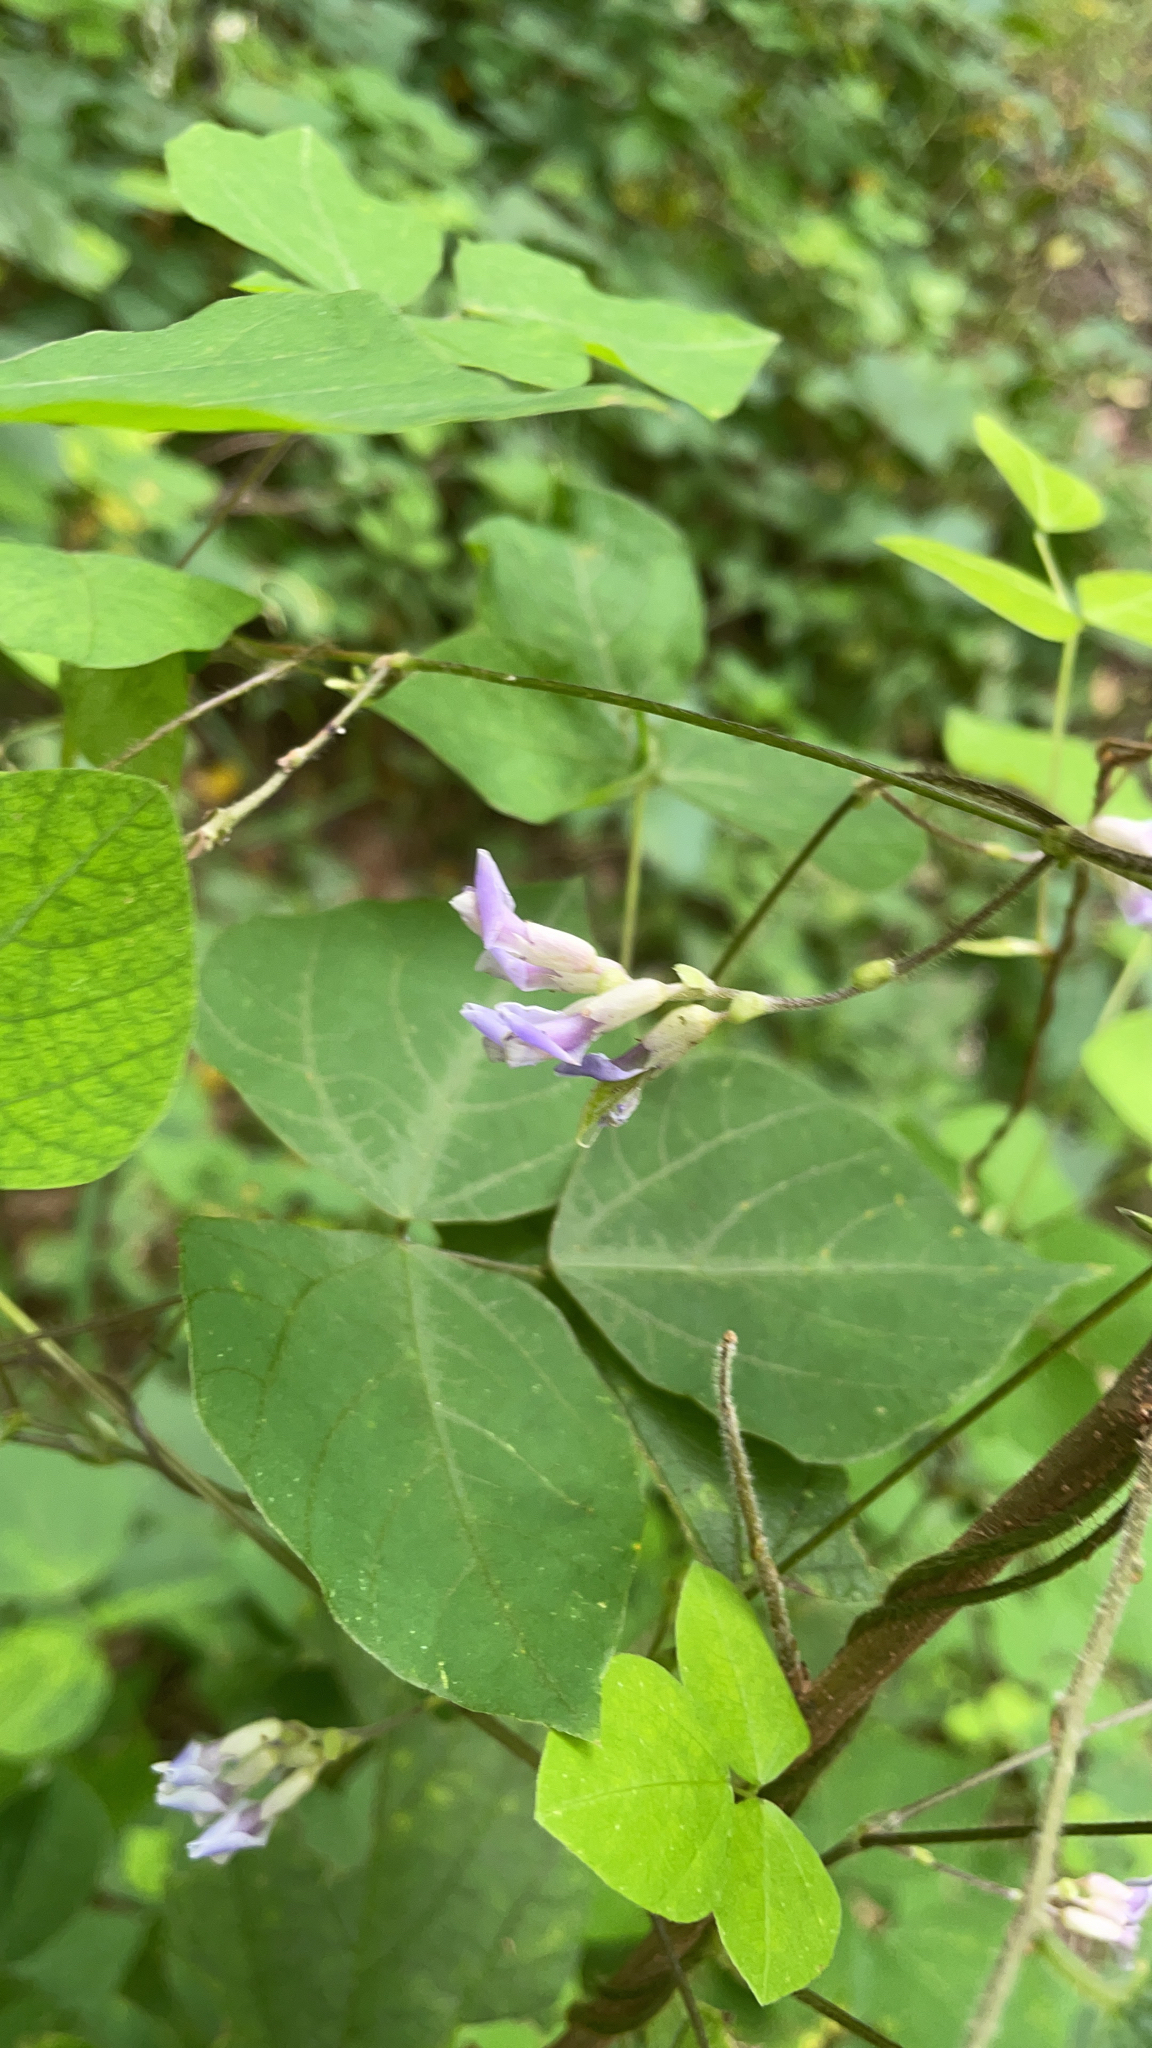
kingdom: Plantae
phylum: Tracheophyta
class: Magnoliopsida
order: Fabales
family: Fabaceae
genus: Amphicarpaea
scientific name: Amphicarpaea bracteata
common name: American hog peanut
